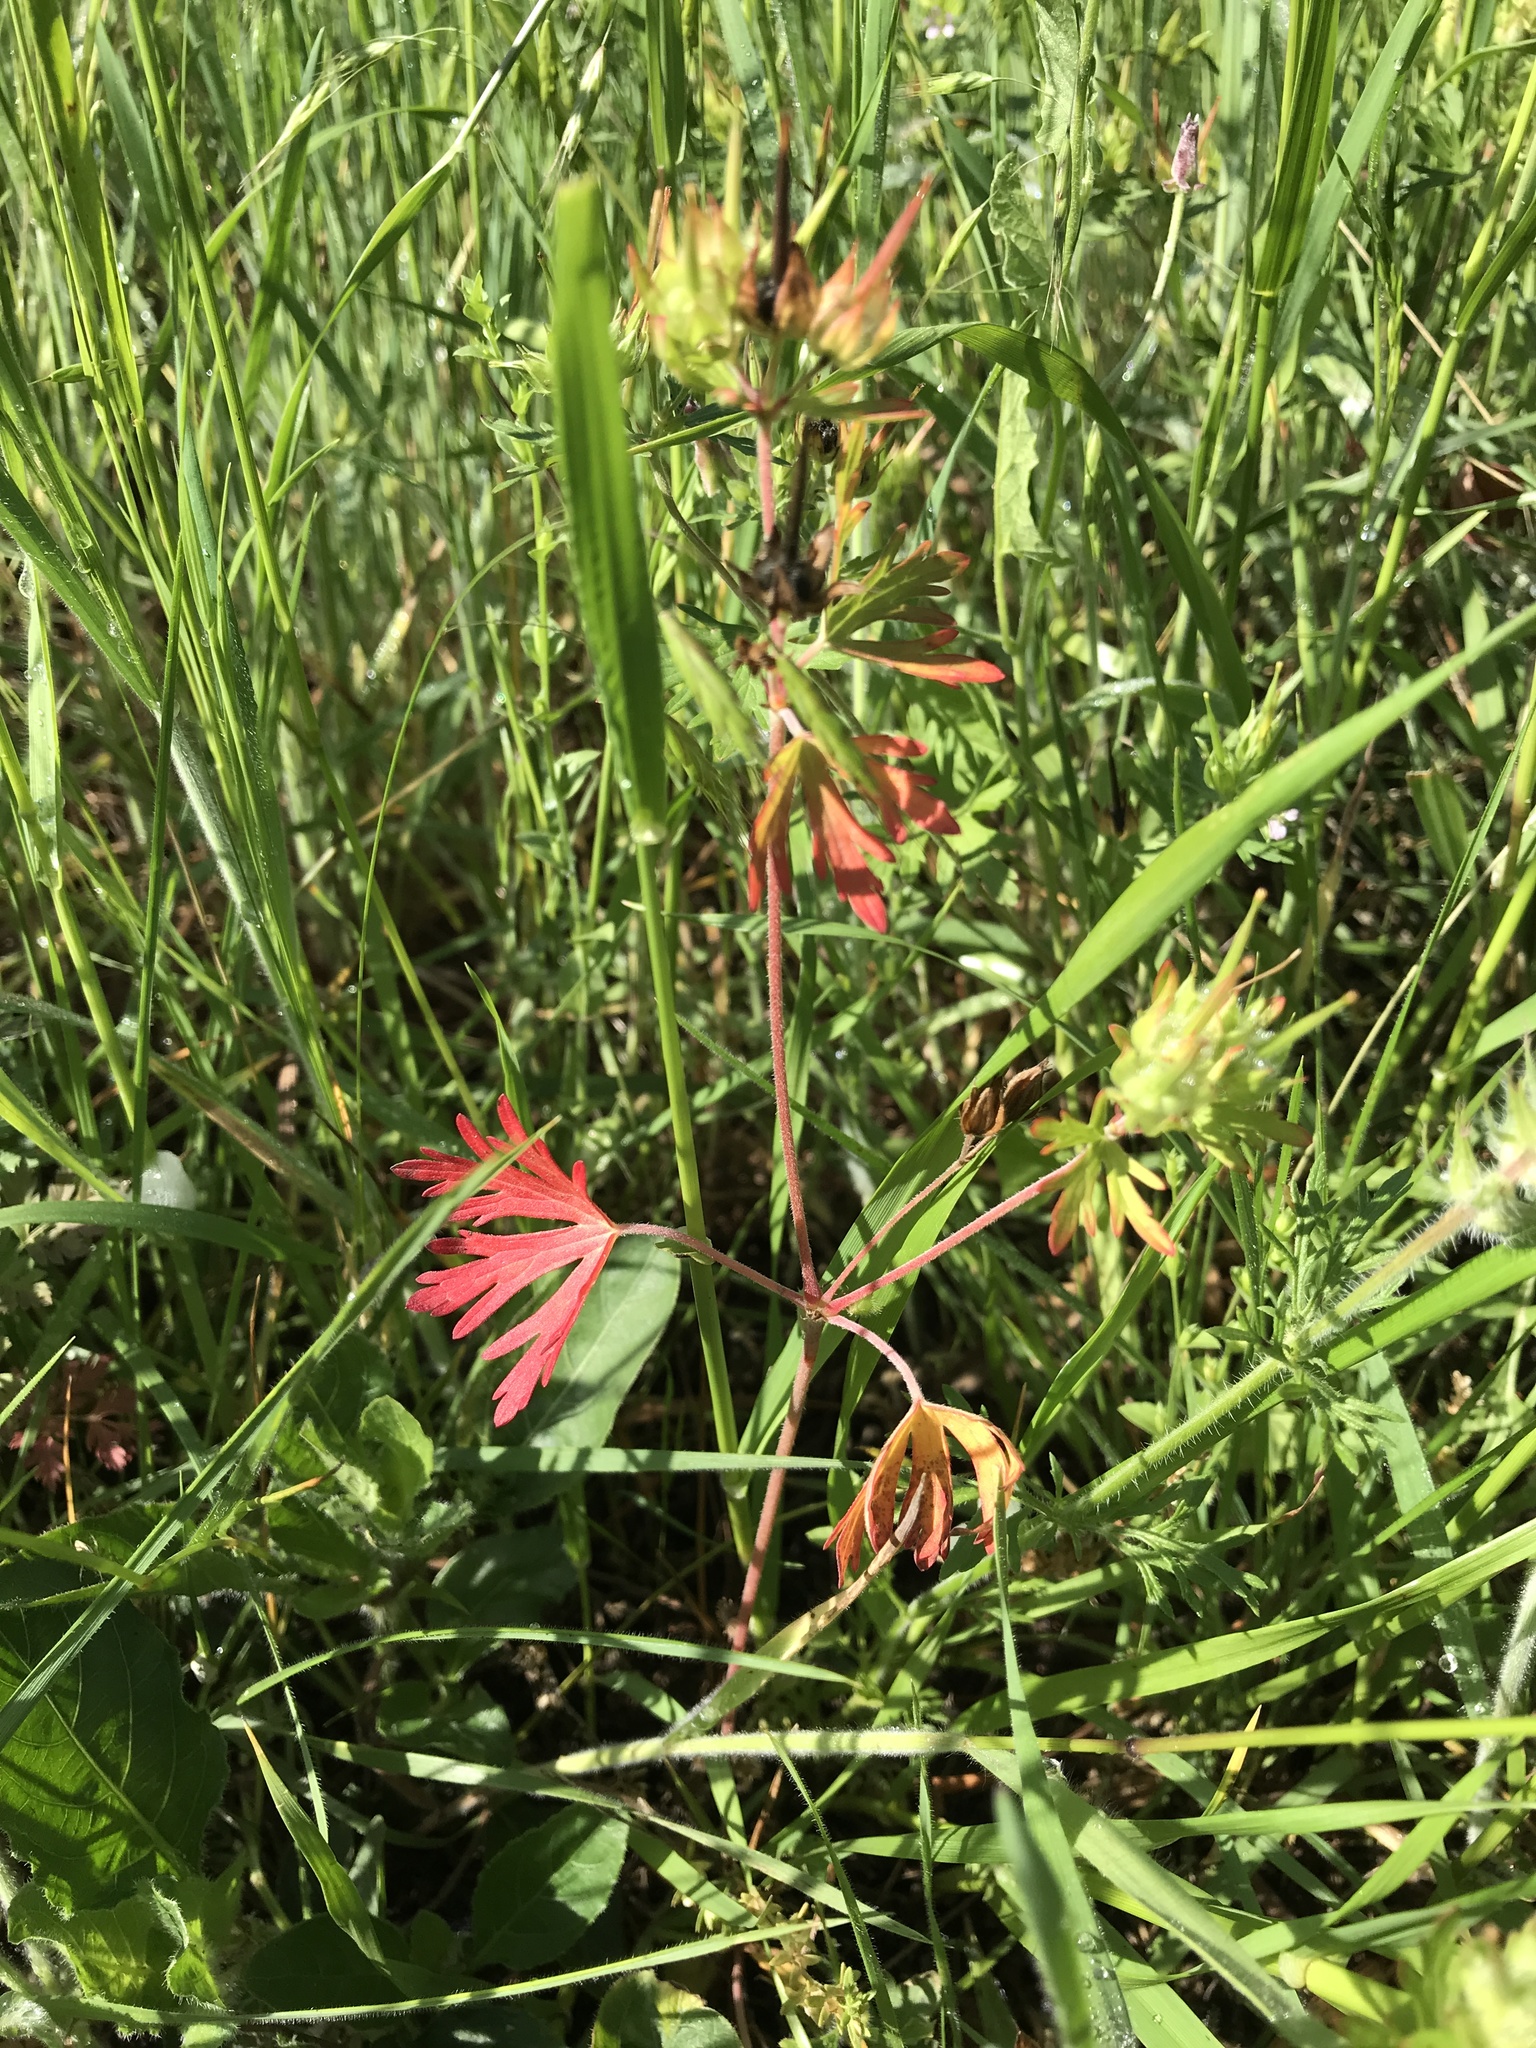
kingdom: Plantae
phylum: Tracheophyta
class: Magnoliopsida
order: Geraniales
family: Geraniaceae
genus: Geranium
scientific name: Geranium carolinianum
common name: Carolina crane's-bill
